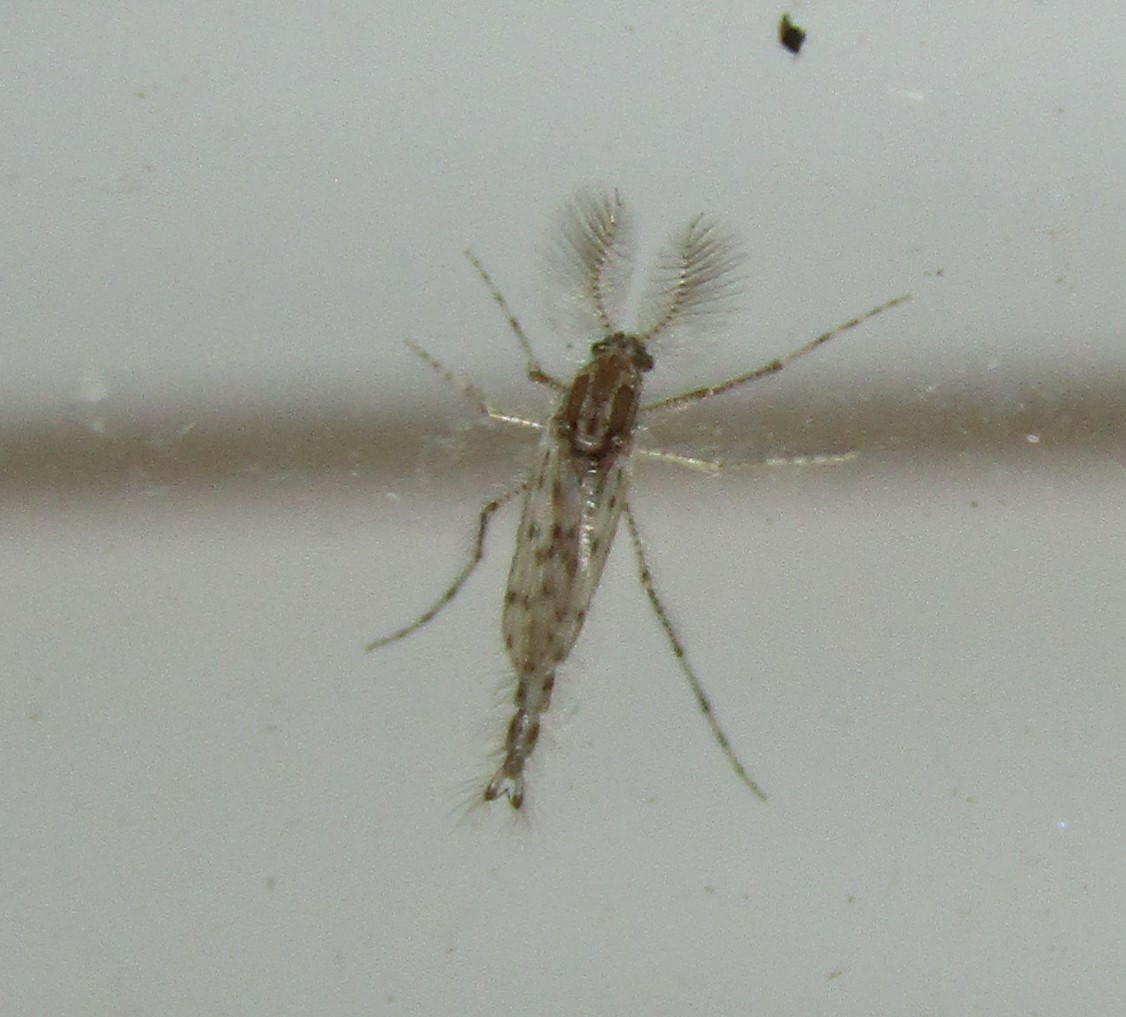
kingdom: Animalia
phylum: Arthropoda
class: Insecta
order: Diptera
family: Chaoboridae
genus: Chaoborus
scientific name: Chaoborus punctipennis
